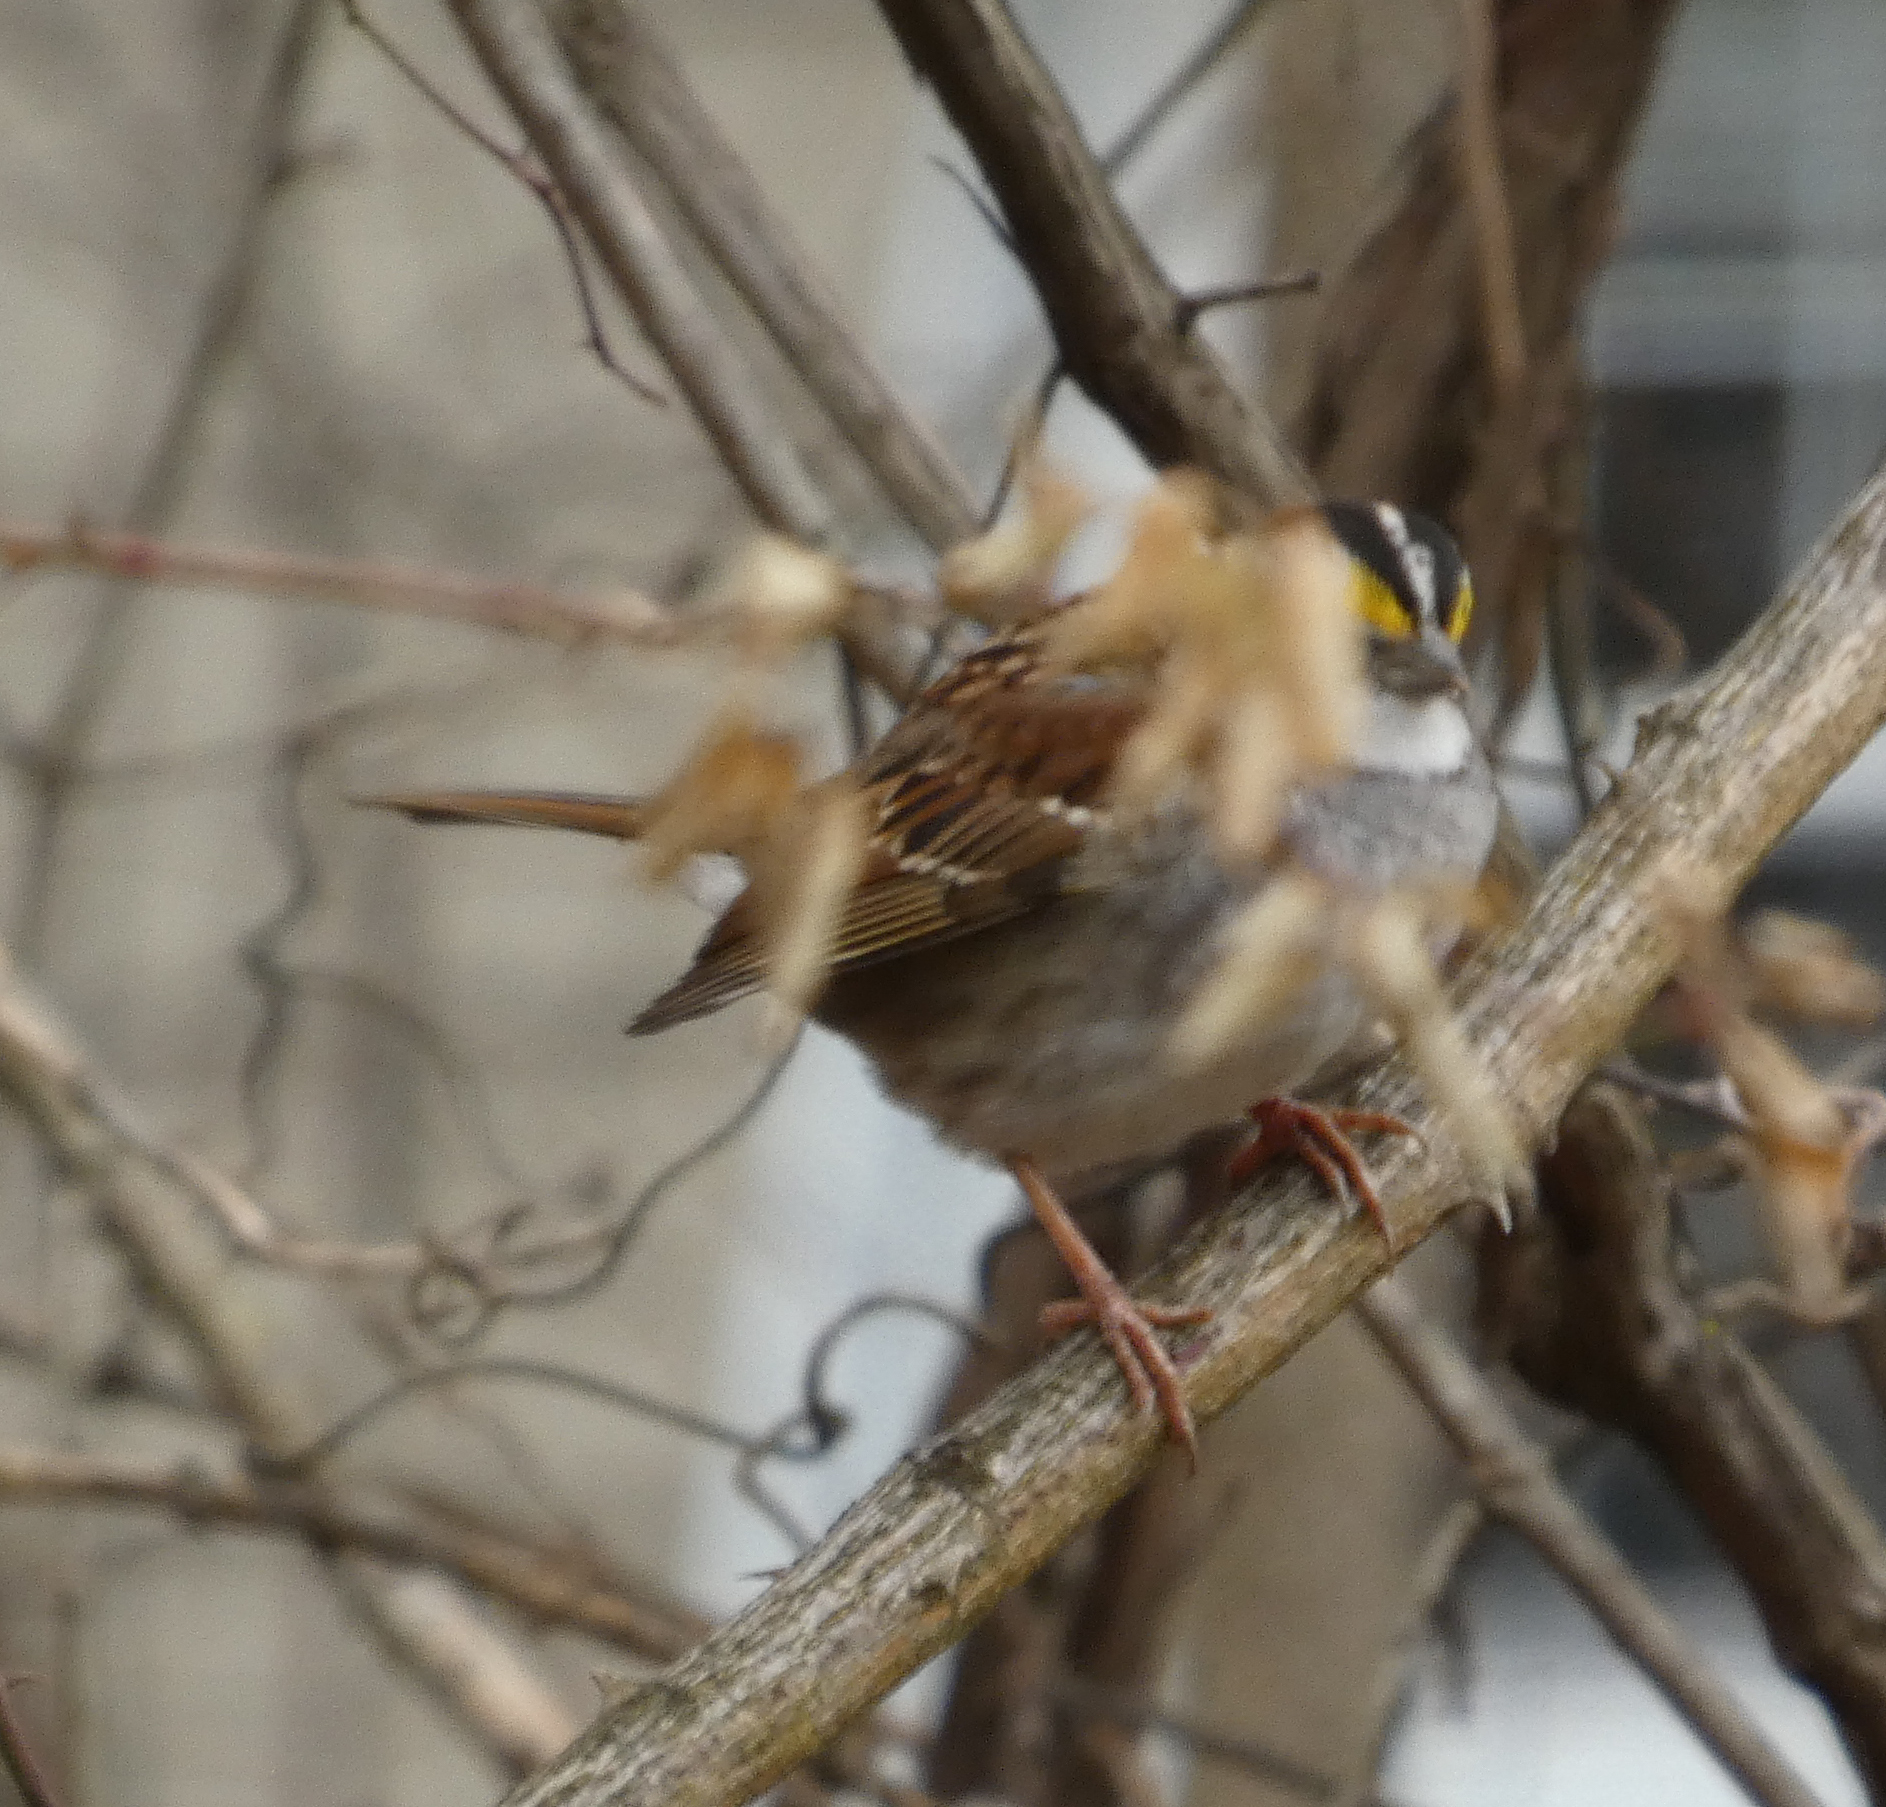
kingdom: Animalia
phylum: Chordata
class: Aves
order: Passeriformes
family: Passerellidae
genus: Zonotrichia
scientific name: Zonotrichia albicollis
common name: White-throated sparrow
